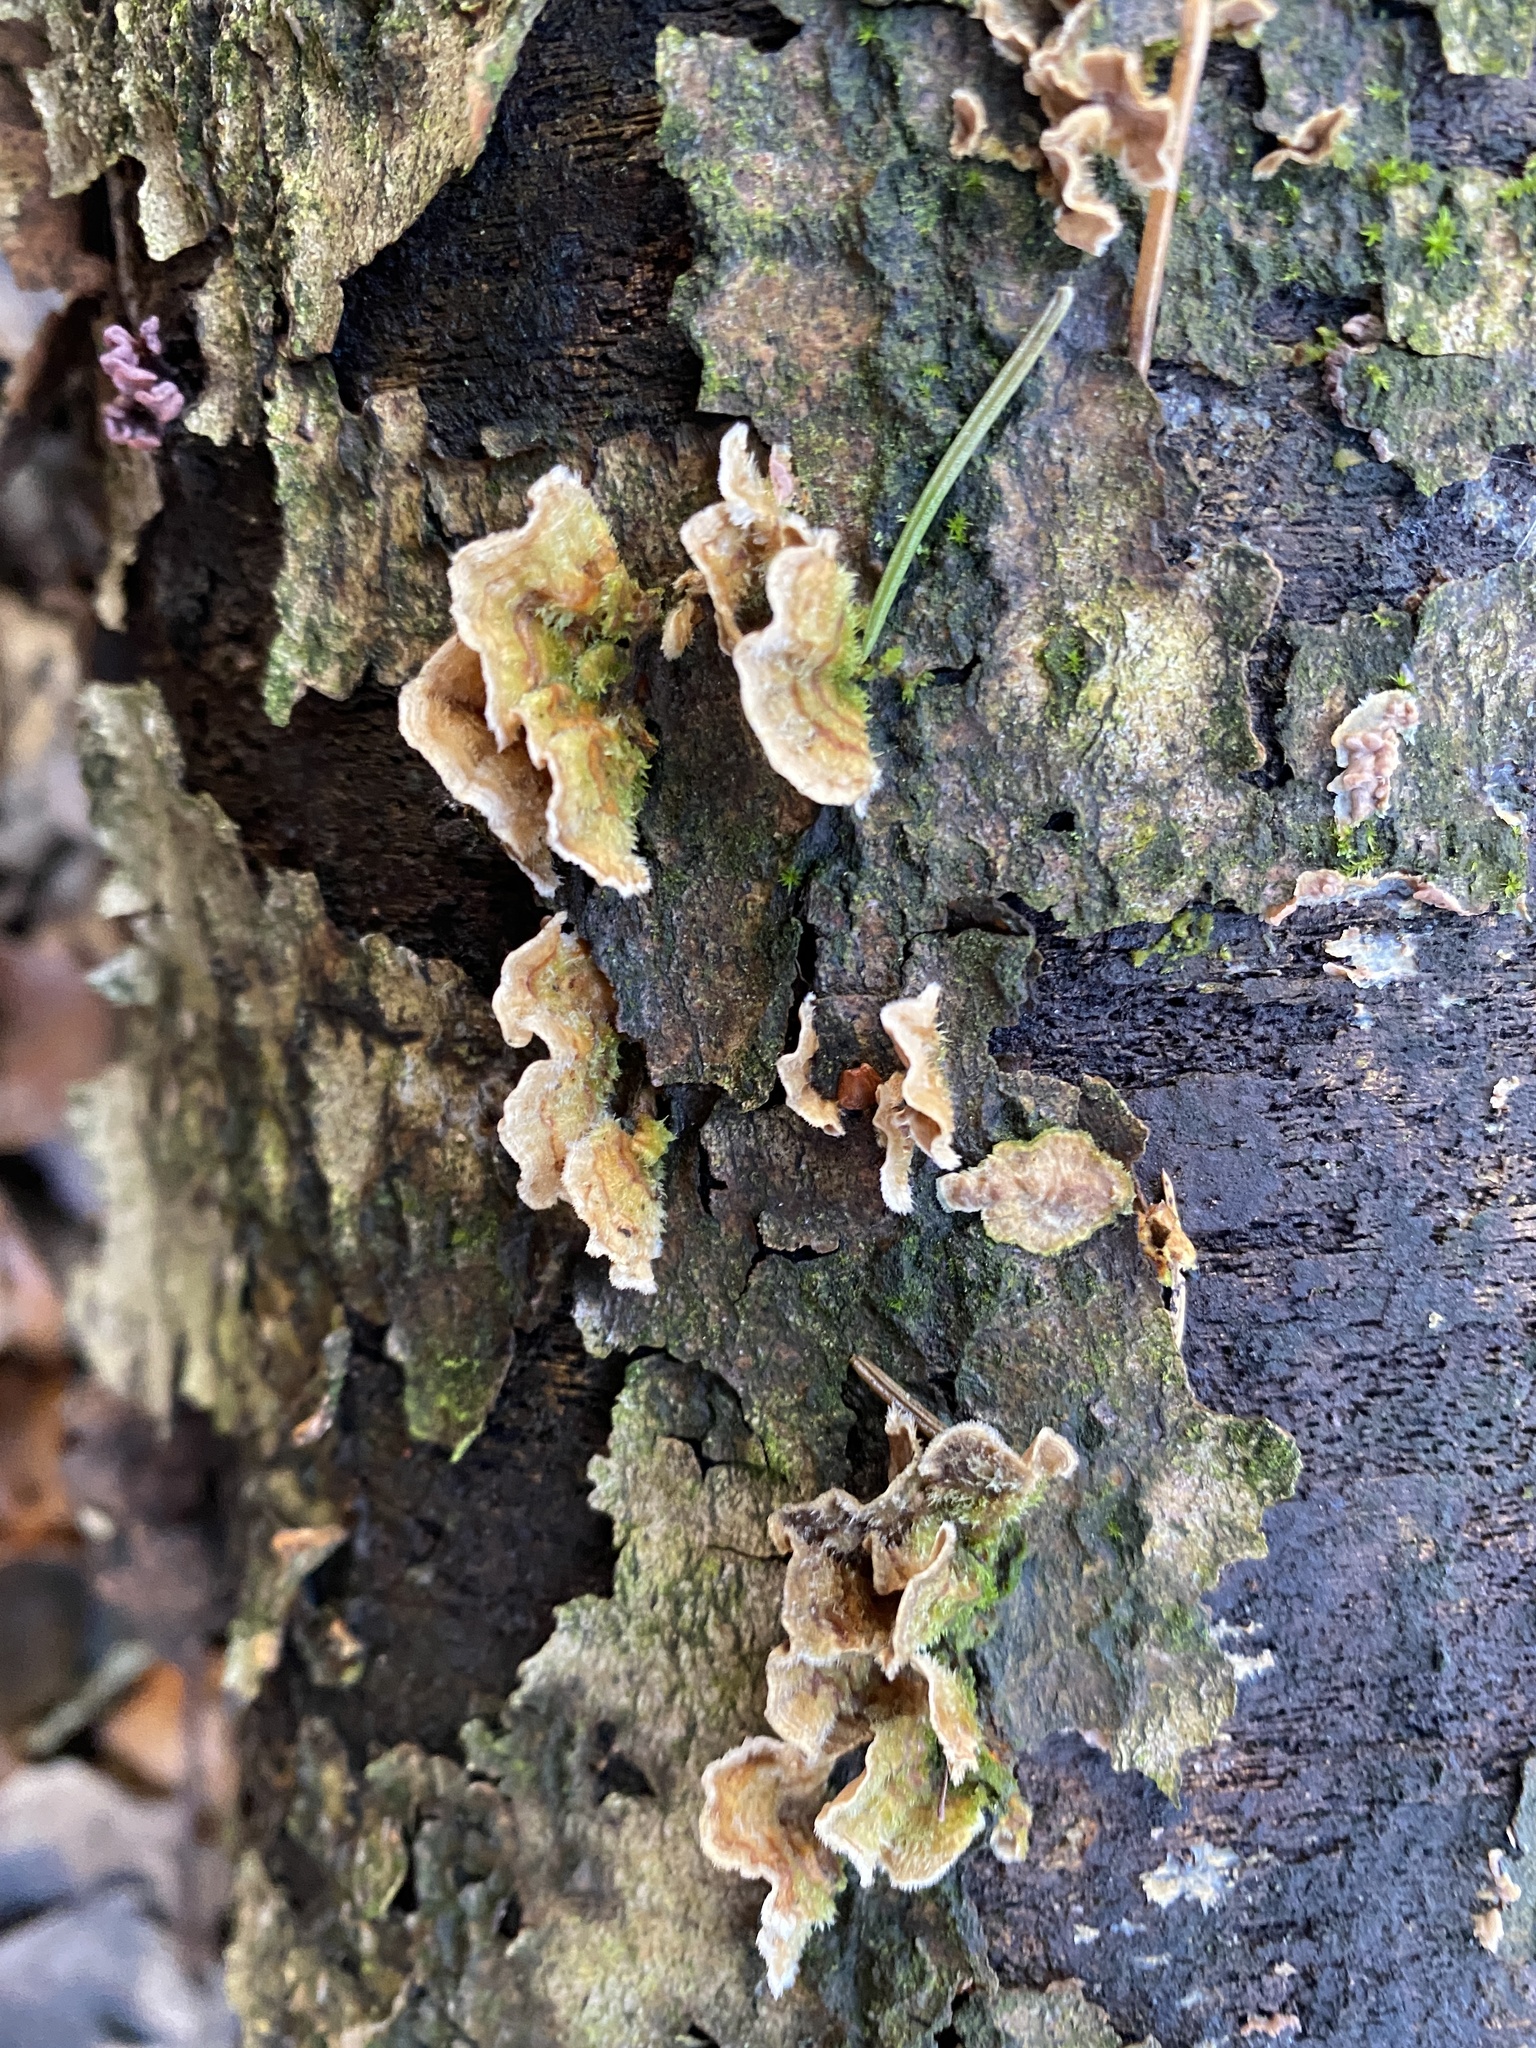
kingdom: Fungi
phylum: Basidiomycota
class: Agaricomycetes
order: Russulales
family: Stereaceae
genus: Stereum
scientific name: Stereum hirsutum
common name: Hairy curtain crust
